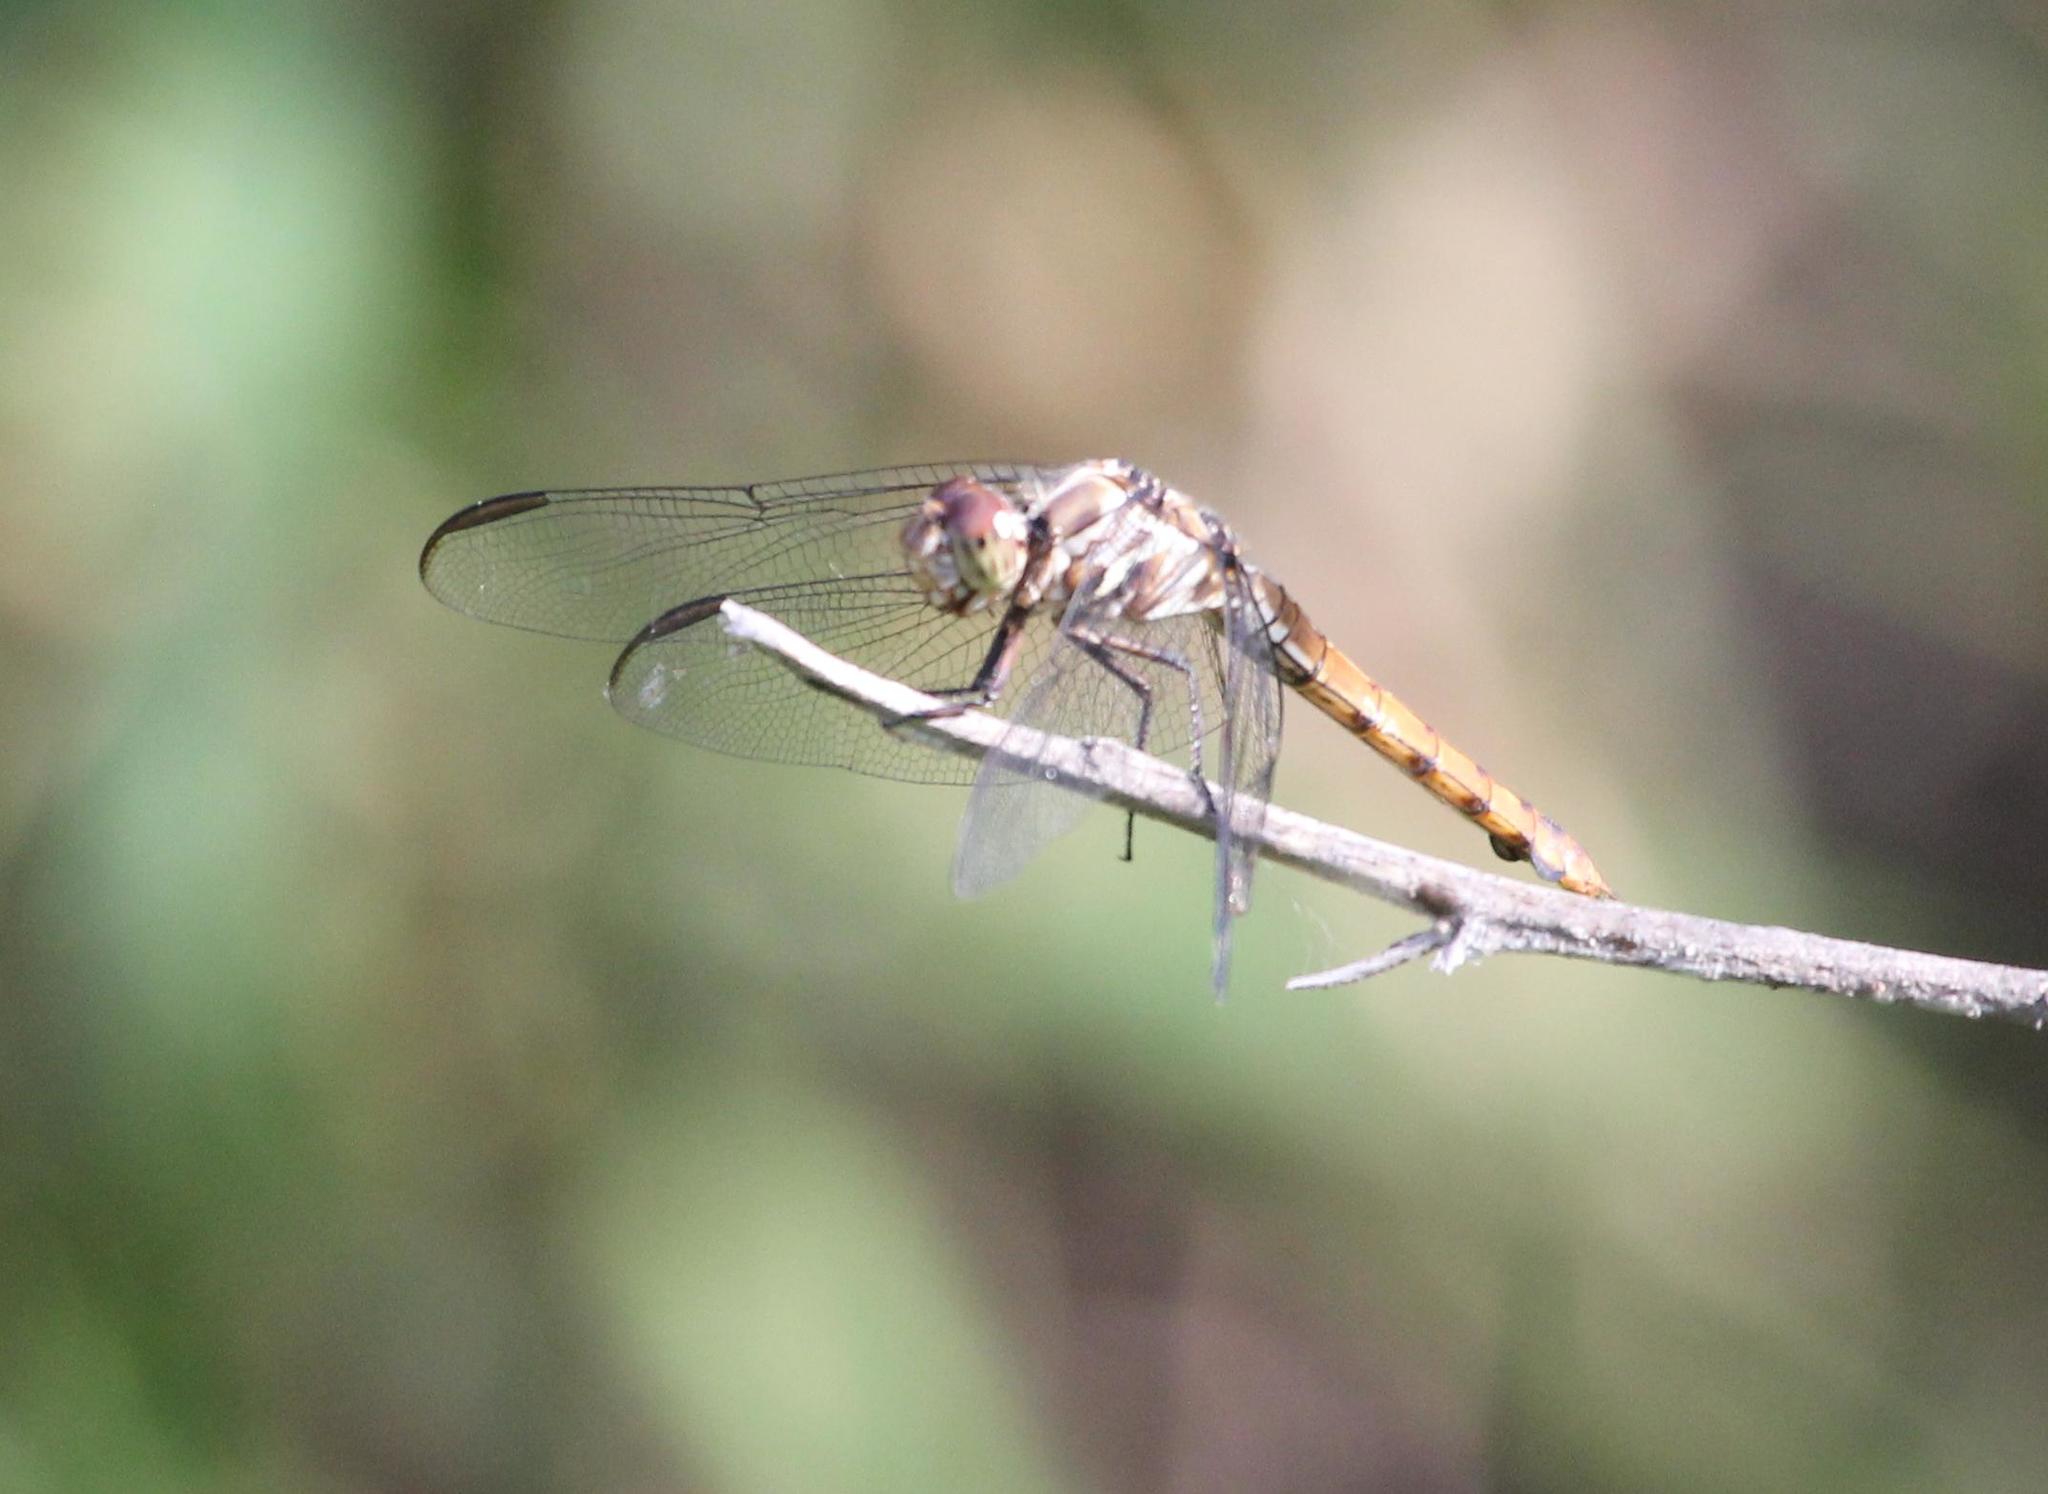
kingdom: Animalia
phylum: Arthropoda
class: Insecta
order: Odonata
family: Libellulidae
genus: Orthemis
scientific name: Orthemis ferruginea
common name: Roseate skimmer
